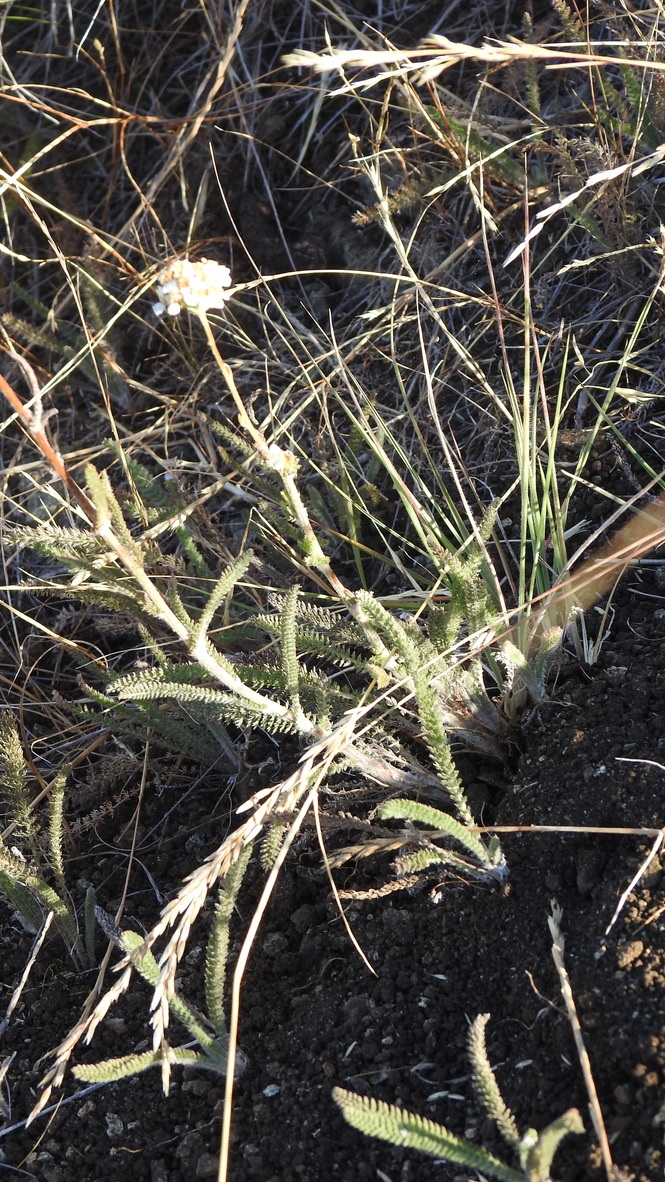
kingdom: Plantae
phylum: Tracheophyta
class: Magnoliopsida
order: Asterales
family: Asteraceae
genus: Achillea
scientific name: Achillea millefolium
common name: Yarrow
